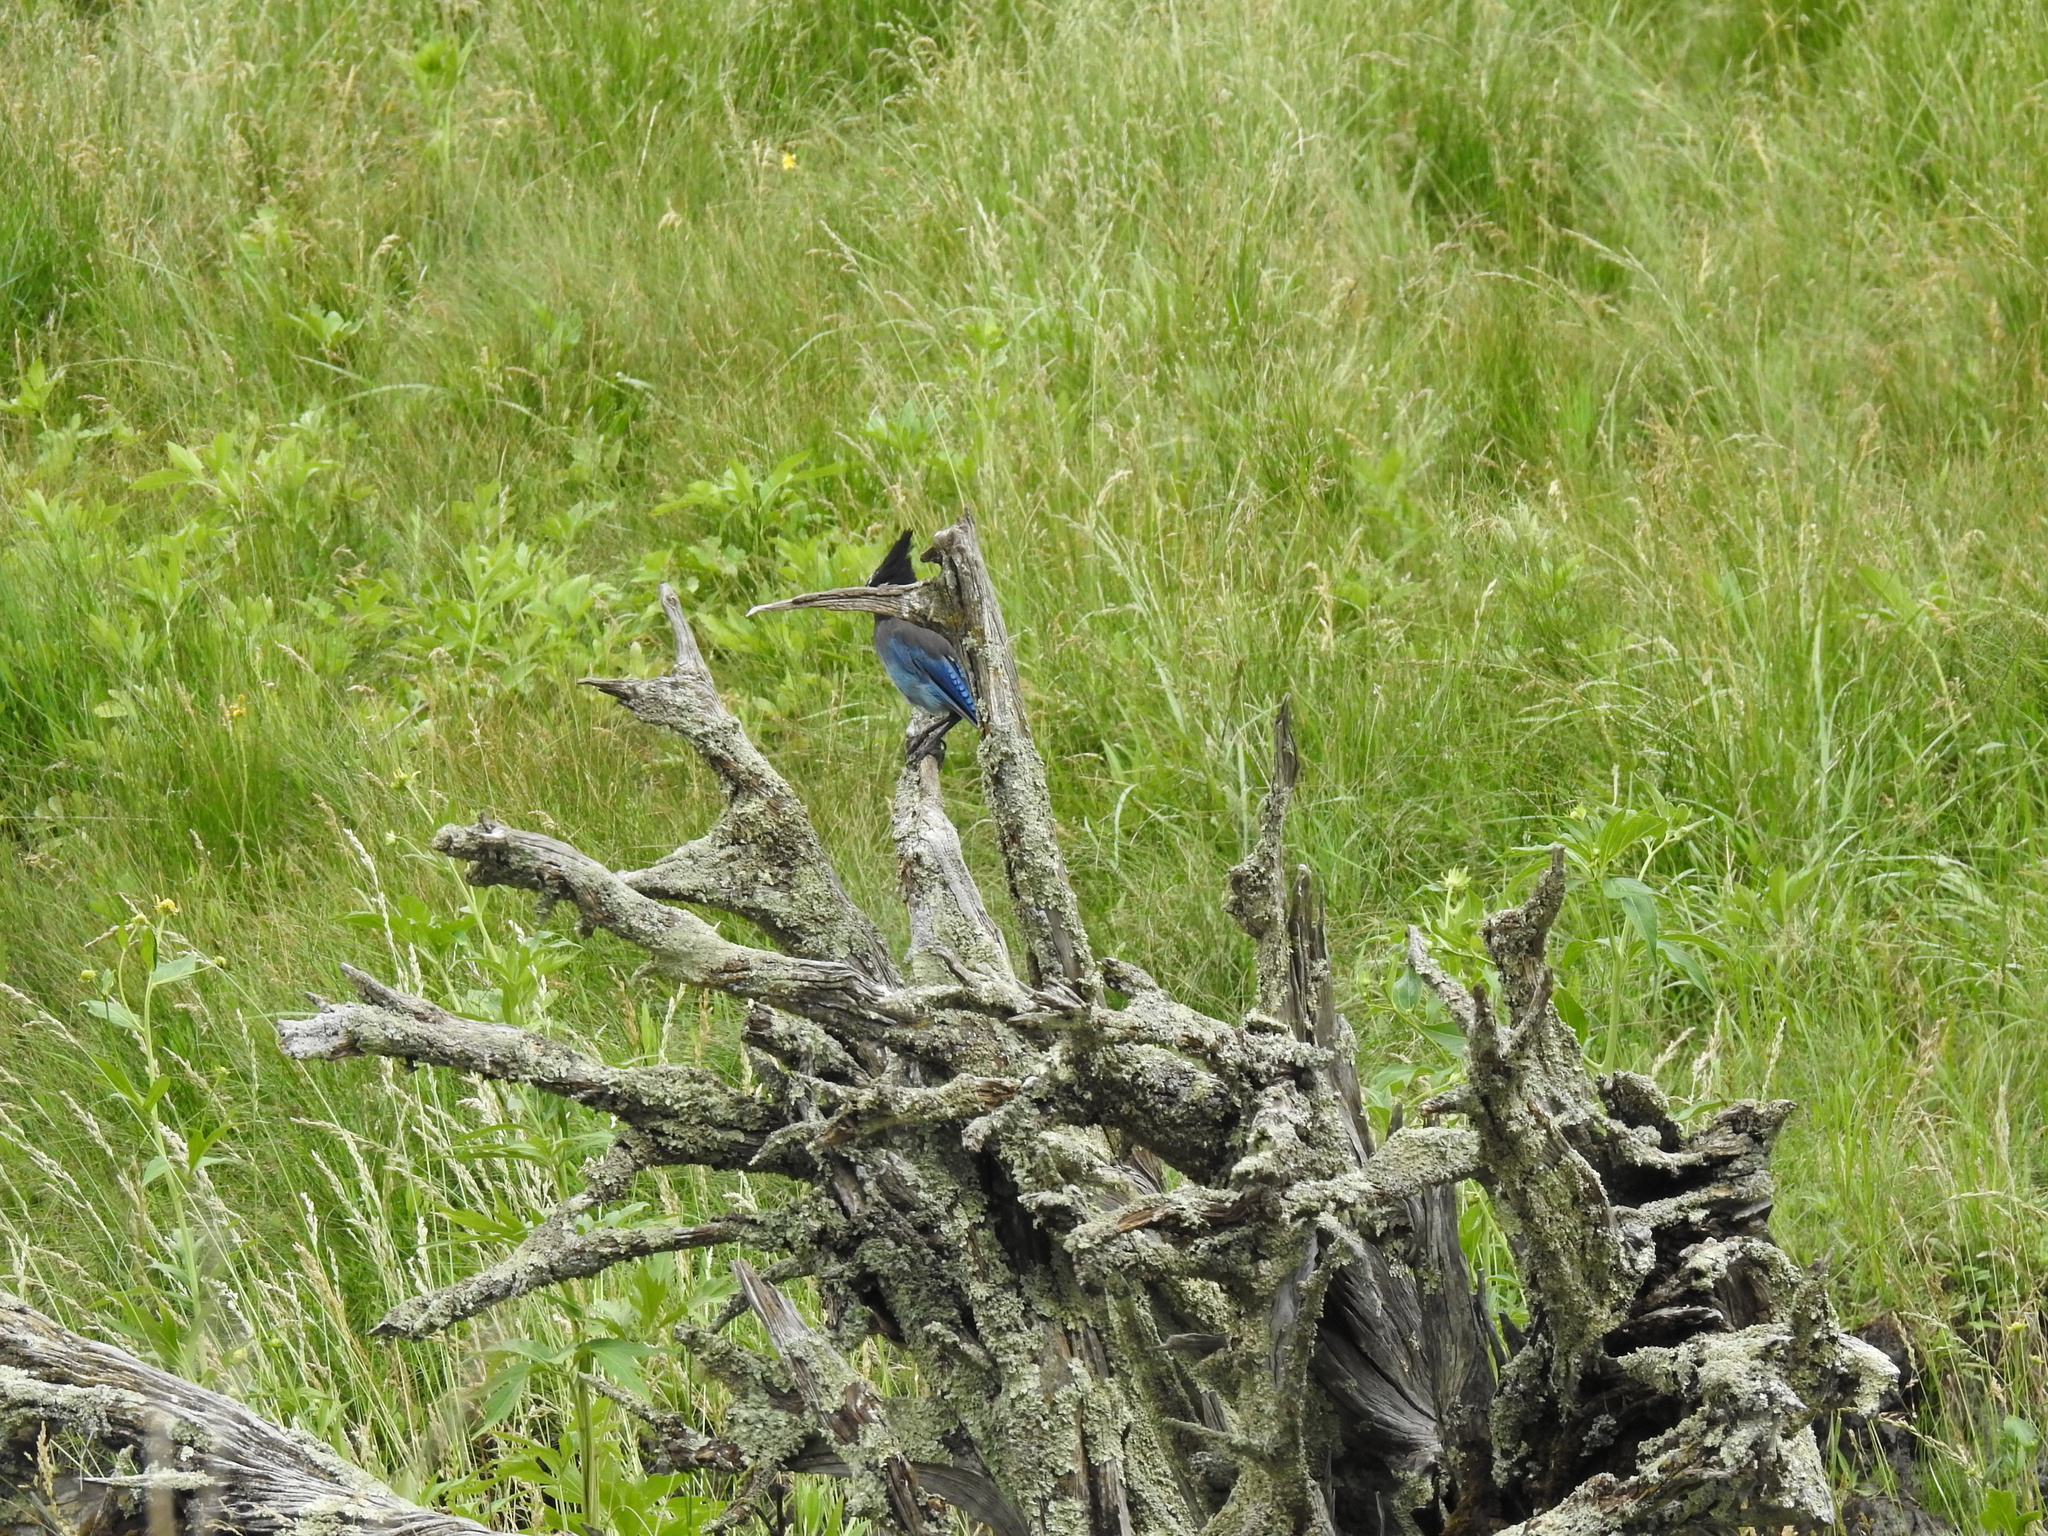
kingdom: Animalia
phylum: Chordata
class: Aves
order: Passeriformes
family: Corvidae
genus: Cyanocitta
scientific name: Cyanocitta stelleri
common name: Steller's jay
